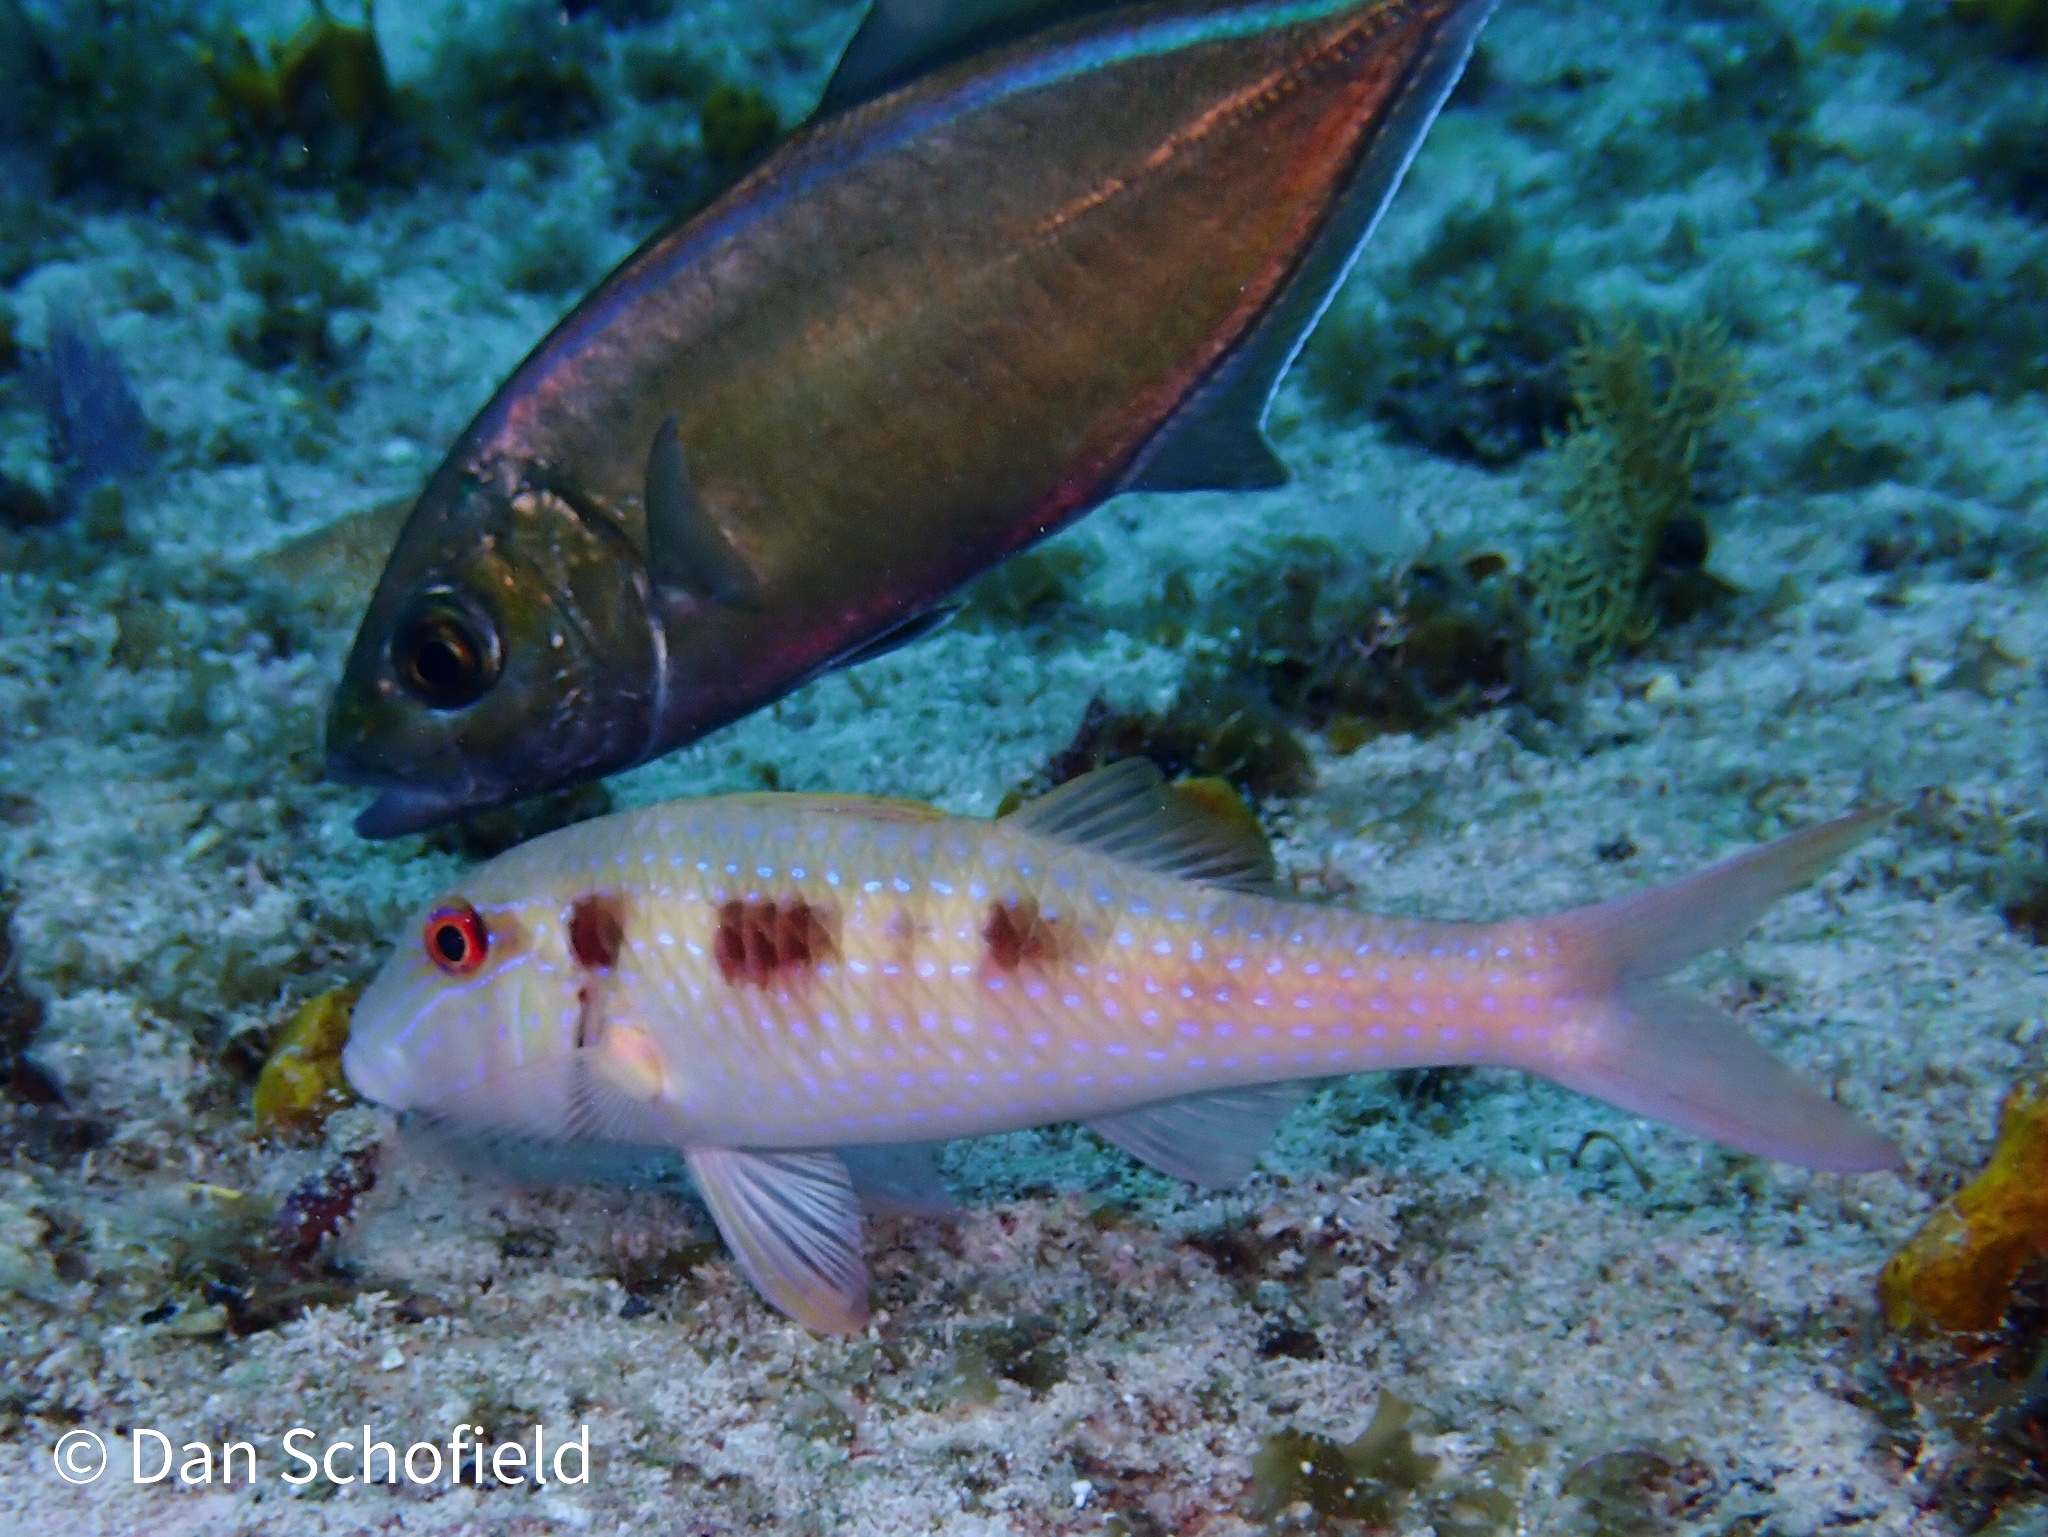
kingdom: Animalia
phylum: Chordata
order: Perciformes
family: Mullidae
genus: Pseudupeneus
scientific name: Pseudupeneus maculatus
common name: Spotted goatfish
